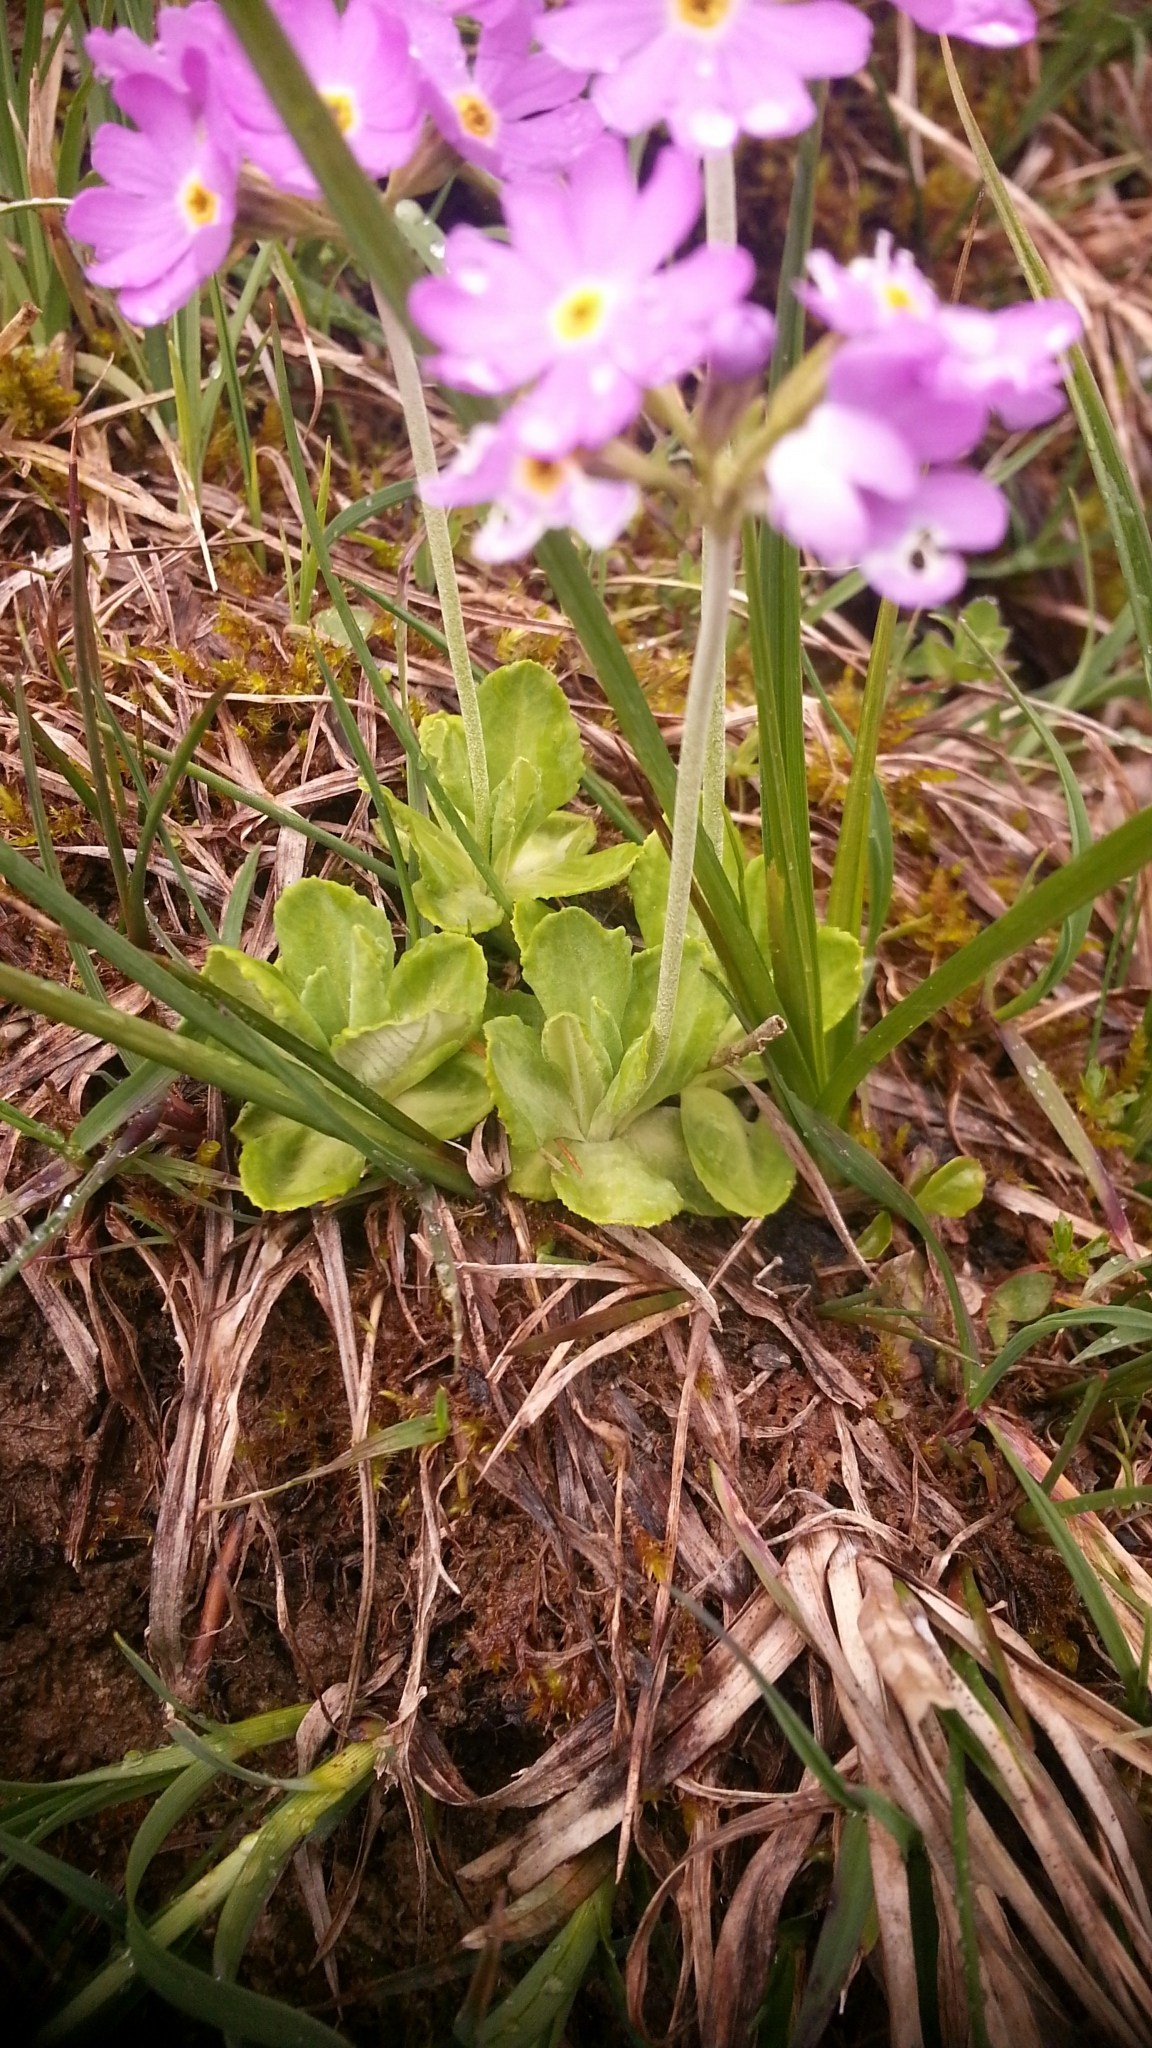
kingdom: Plantae
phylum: Tracheophyta
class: Magnoliopsida
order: Ericales
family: Primulaceae
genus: Primula
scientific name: Primula farinosa
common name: Bird's-eye primrose
